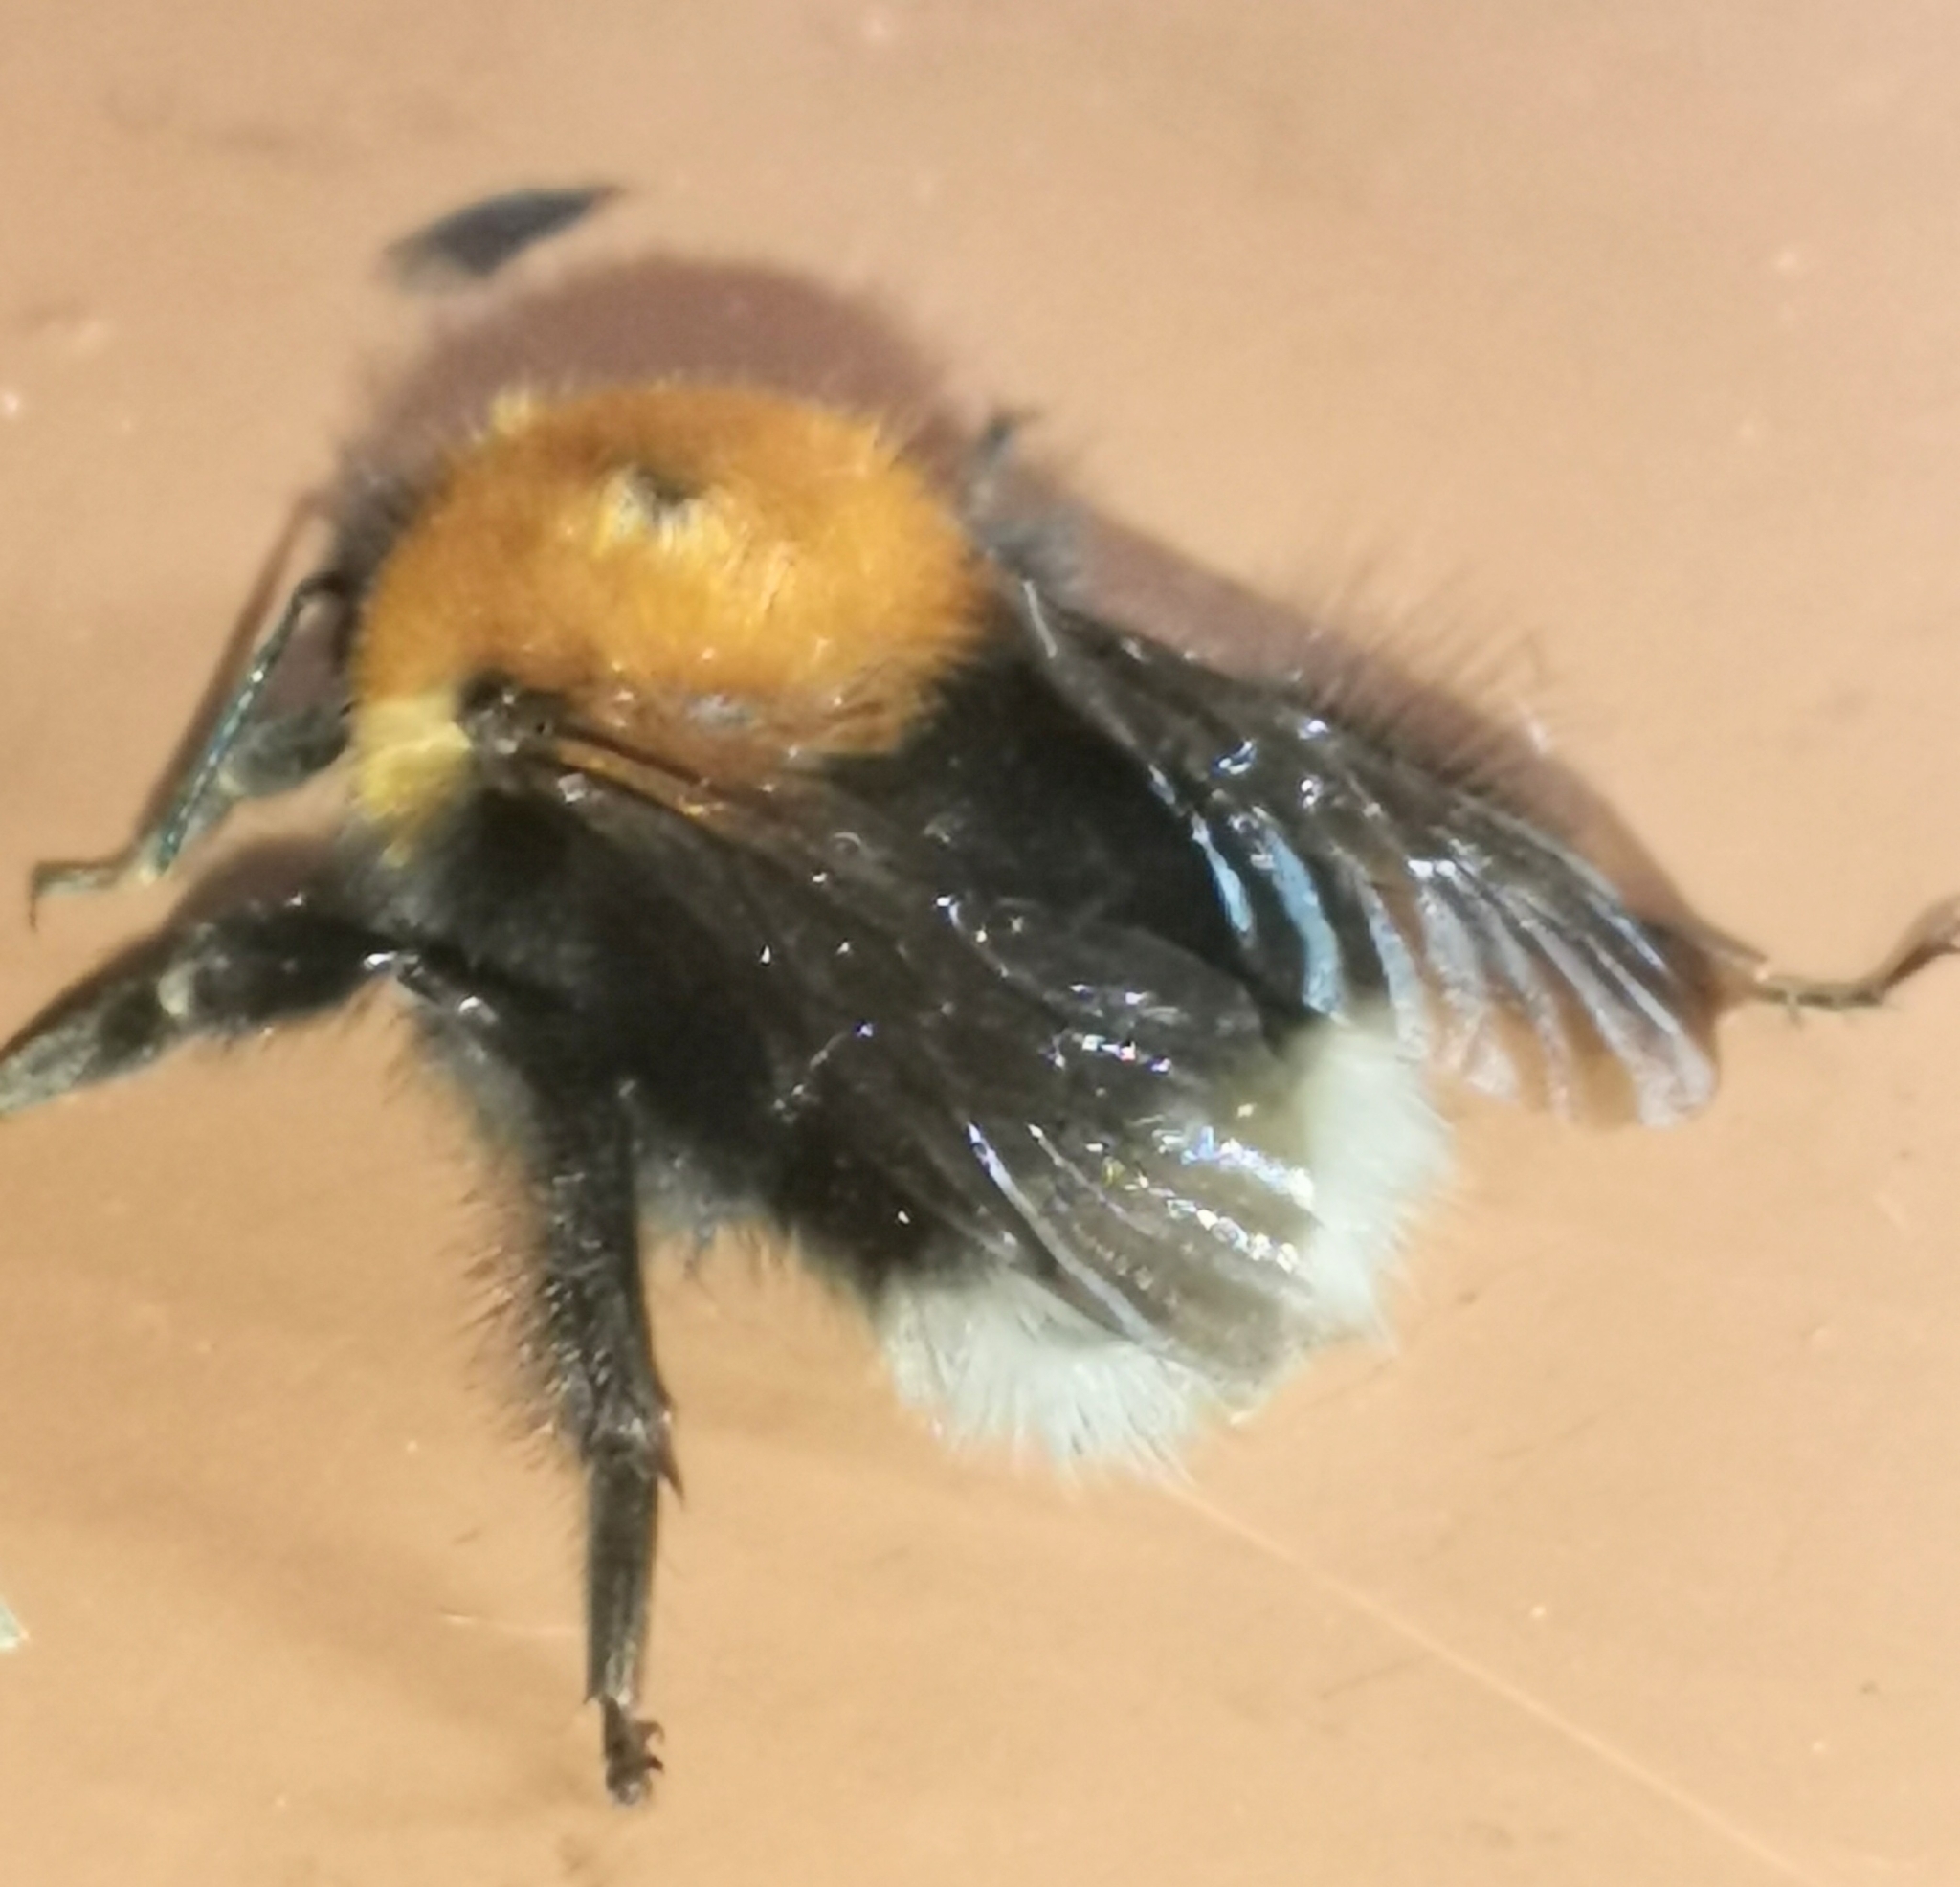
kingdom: Animalia
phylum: Arthropoda
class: Insecta
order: Hymenoptera
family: Apidae
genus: Bombus
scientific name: Bombus hypnorum
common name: New garden bumblebee
